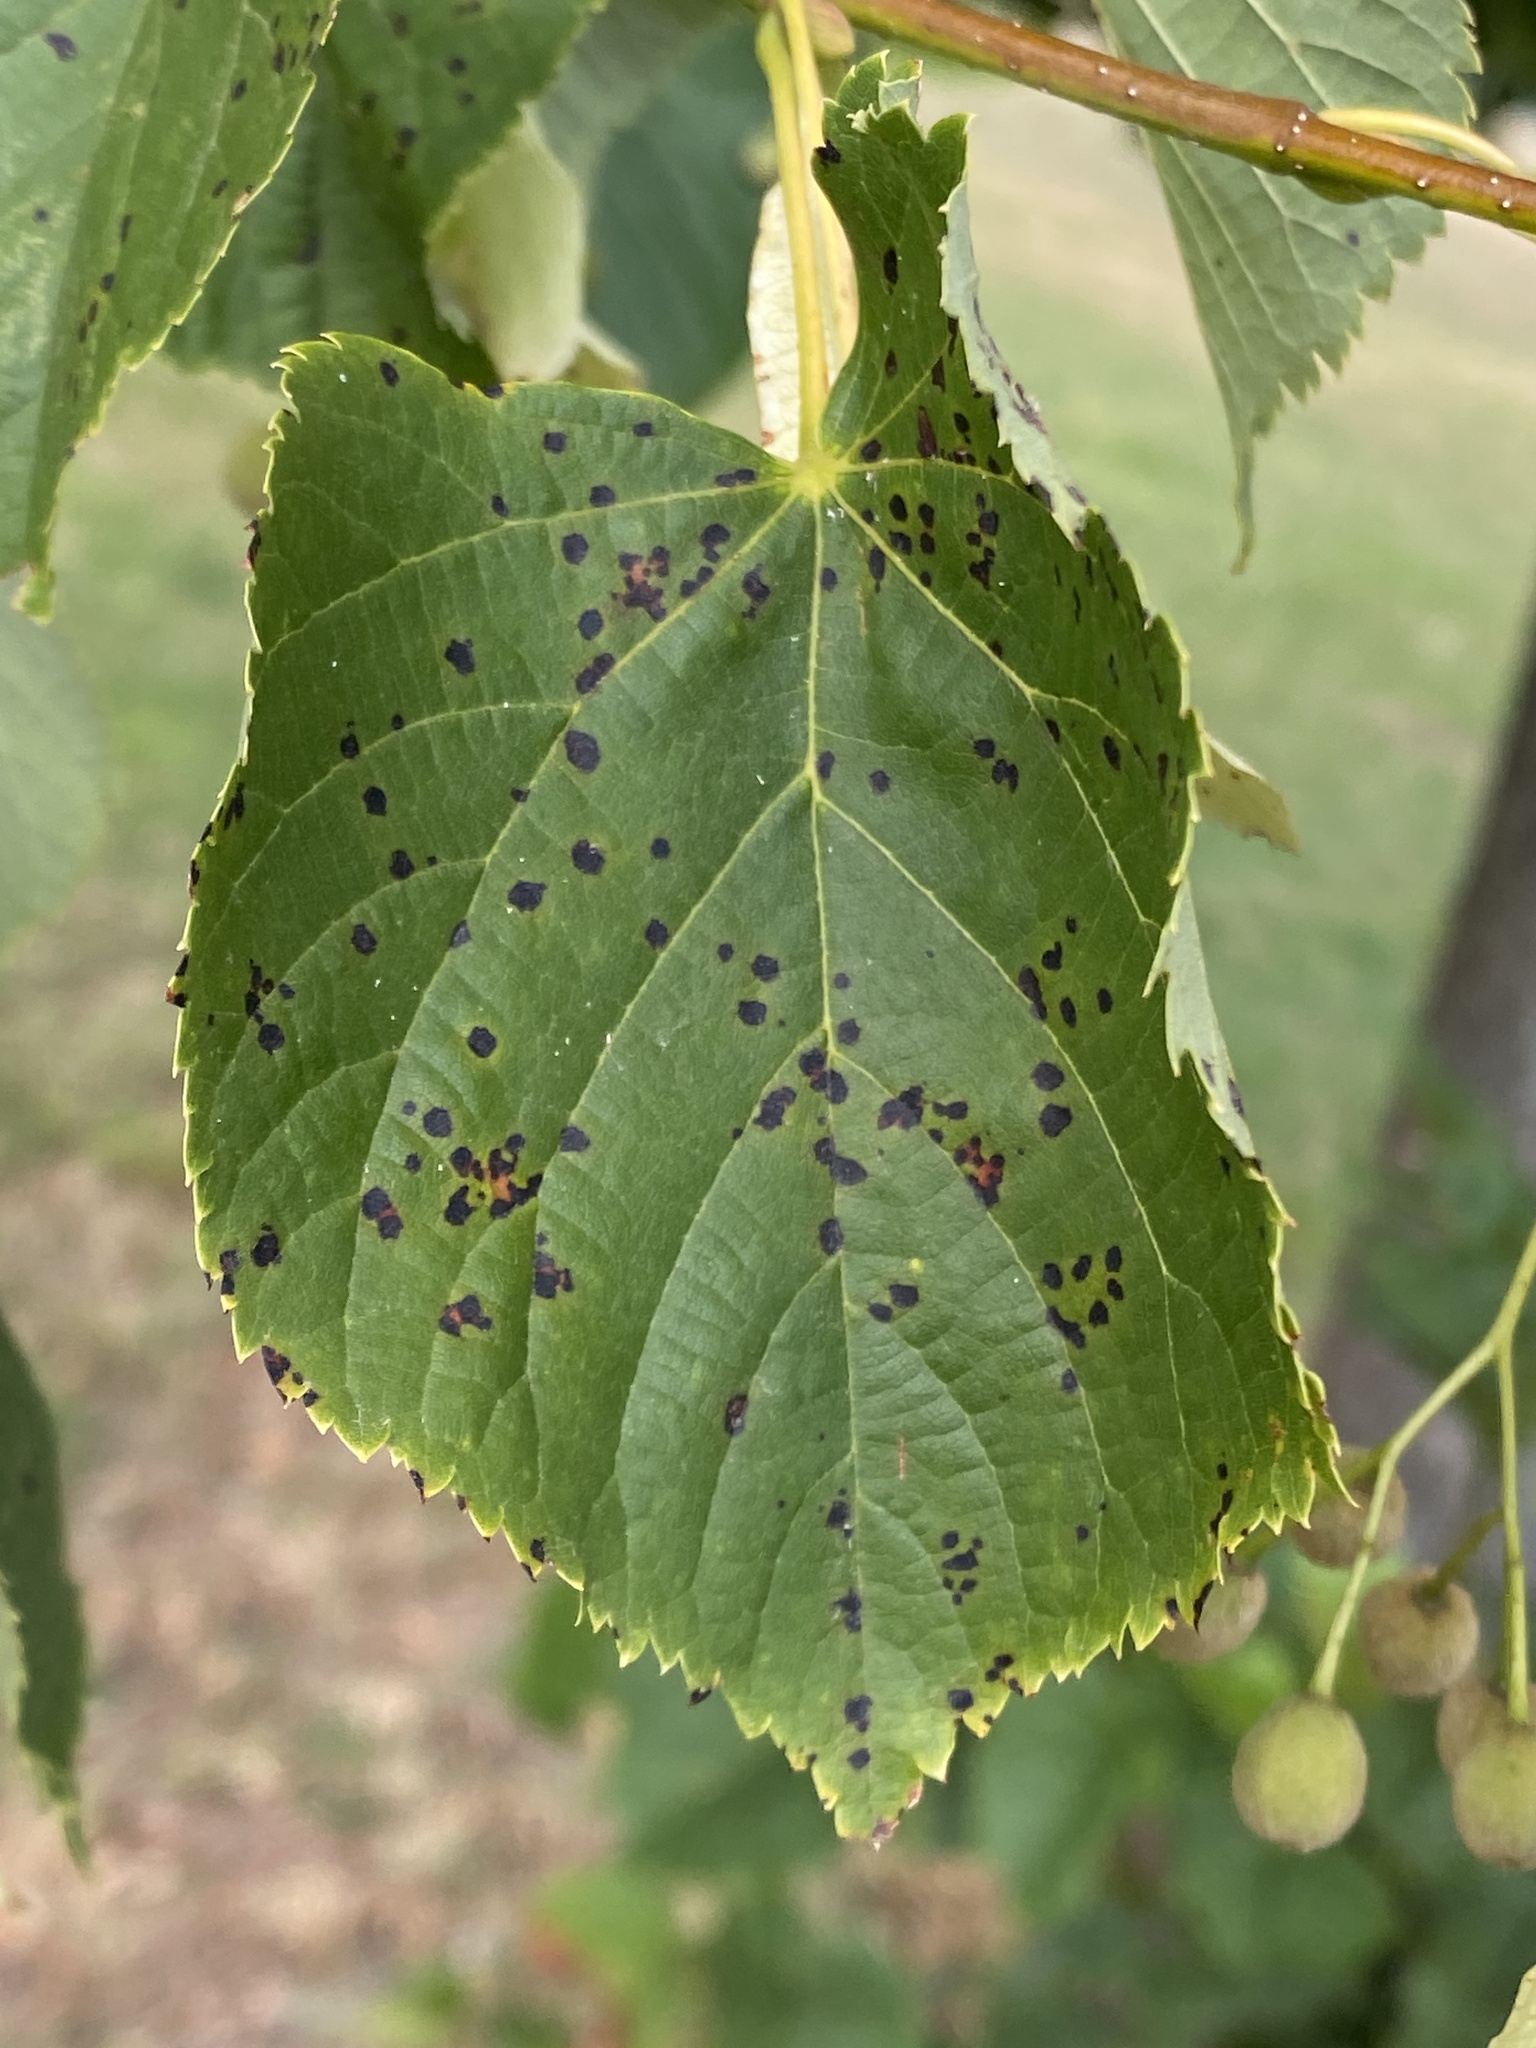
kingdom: Fungi
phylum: Ascomycota
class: Dothideomycetes
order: Mycosphaerellales
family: Mycosphaerellaceae
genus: Paracercosporidium
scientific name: Paracercosporidium microsorum
